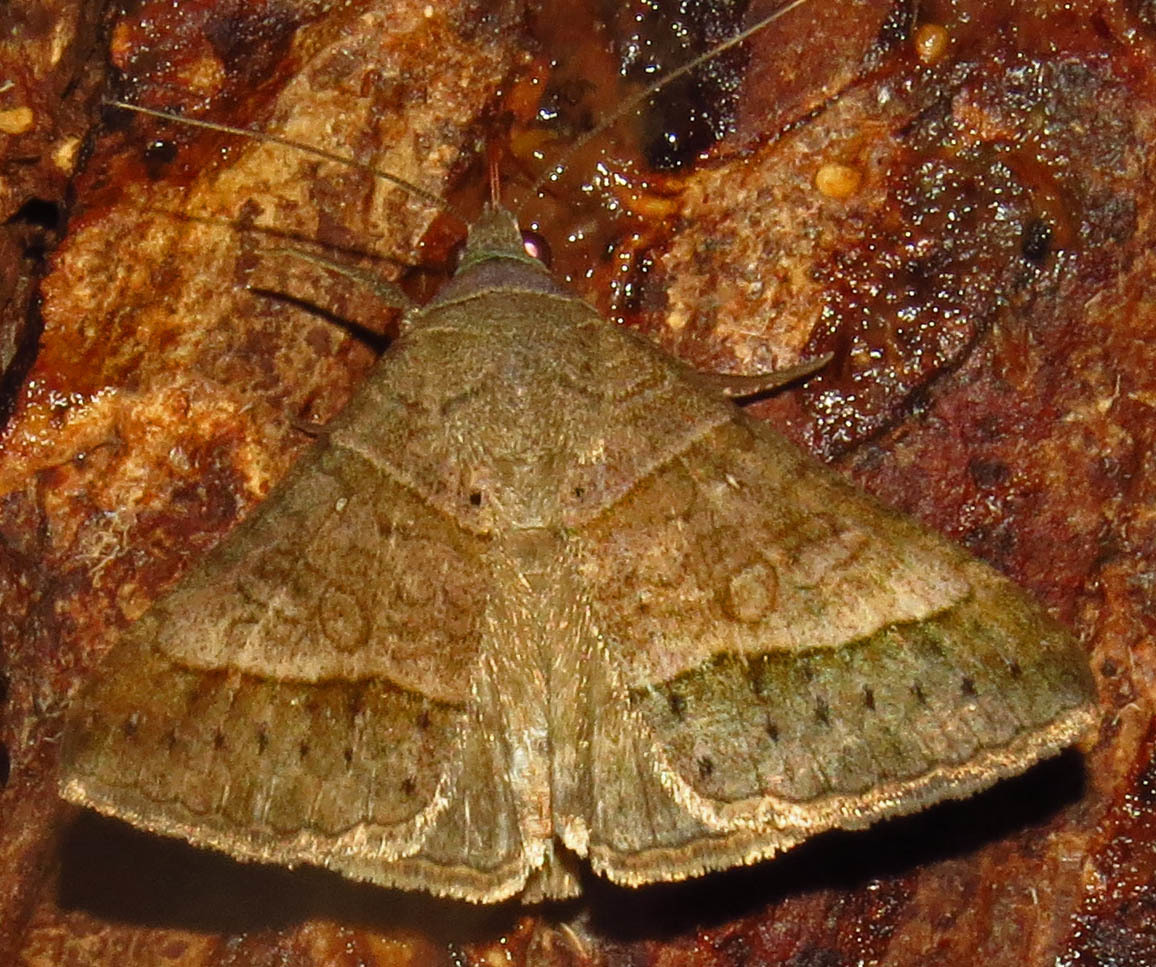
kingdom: Animalia
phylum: Arthropoda
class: Insecta
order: Lepidoptera
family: Erebidae
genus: Mocis
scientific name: Mocis latipes
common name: Striped grass looper
